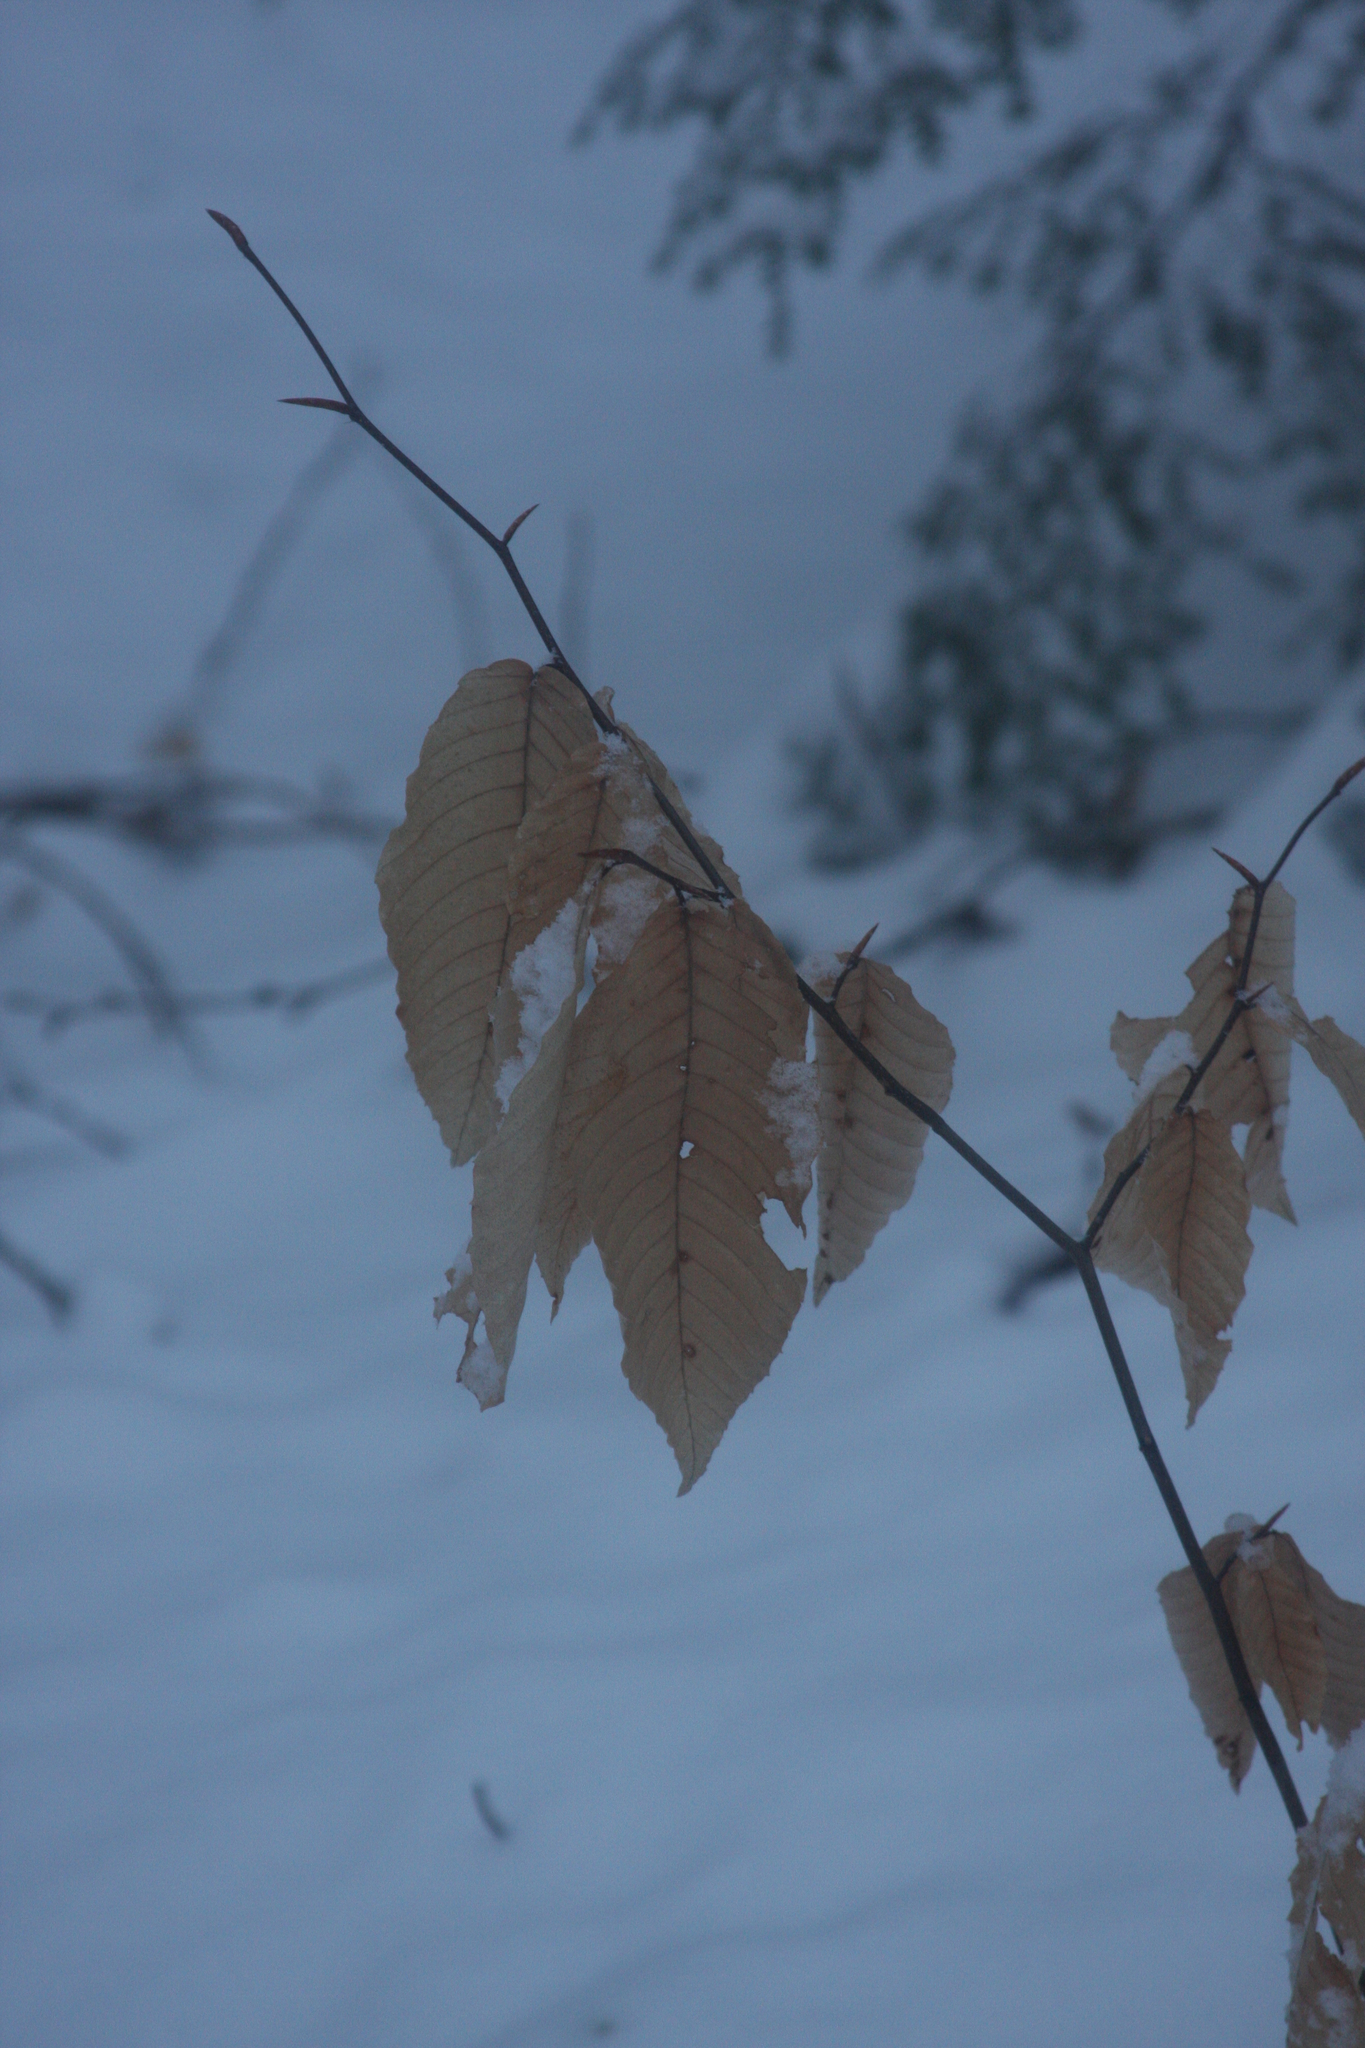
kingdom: Plantae
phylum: Tracheophyta
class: Magnoliopsida
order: Fagales
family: Fagaceae
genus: Fagus
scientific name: Fagus grandifolia
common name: American beech
